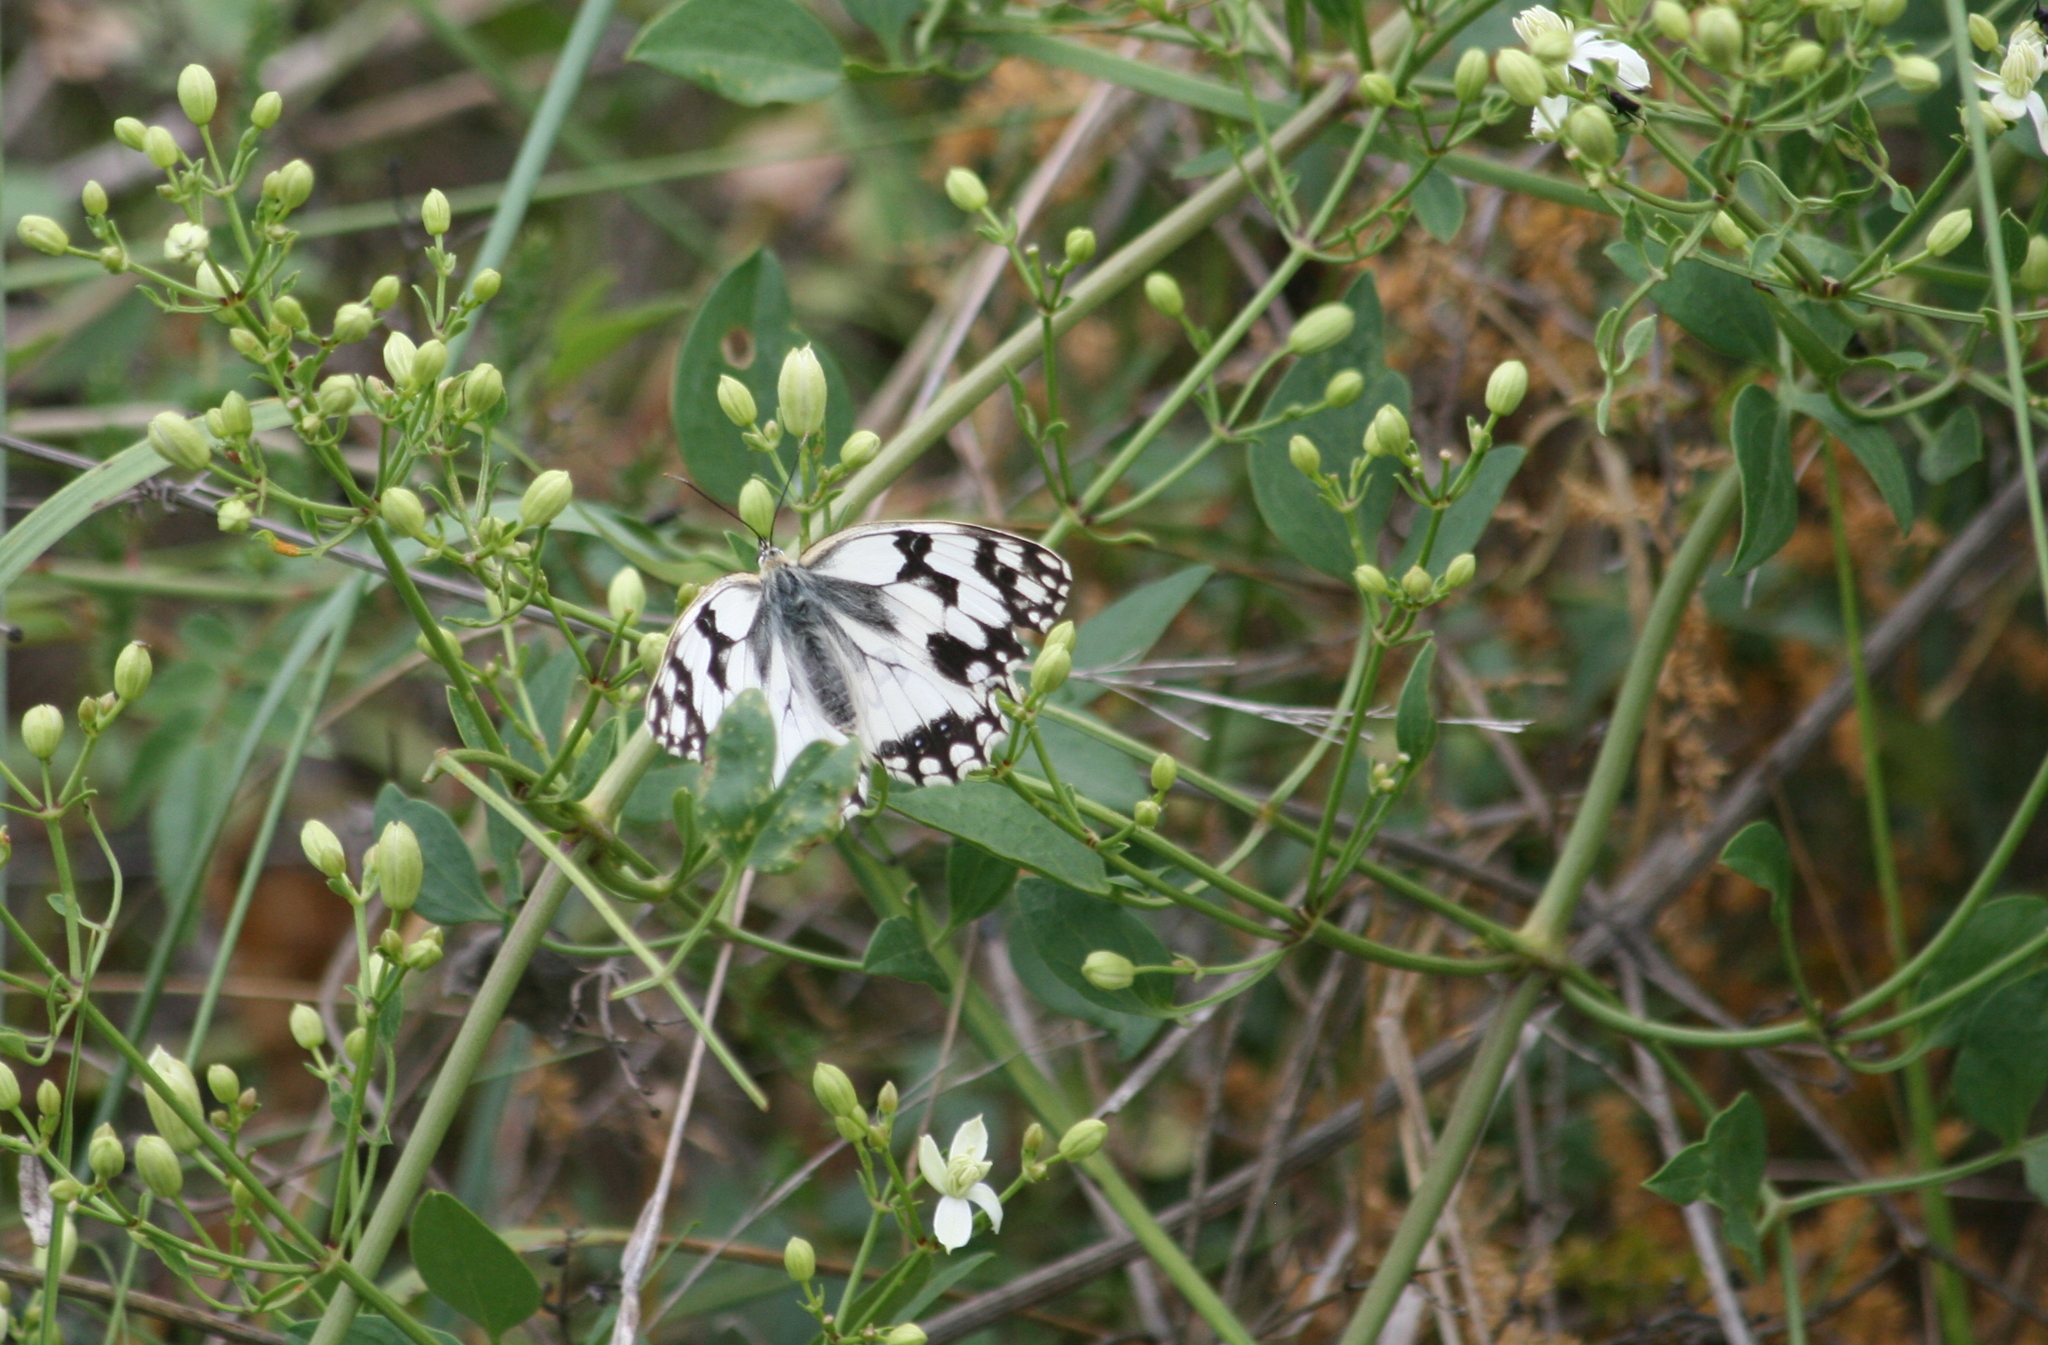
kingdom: Animalia
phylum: Arthropoda
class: Insecta
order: Lepidoptera
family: Nymphalidae
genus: Melanargia
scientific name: Melanargia lachesis
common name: Iberian marbled white
